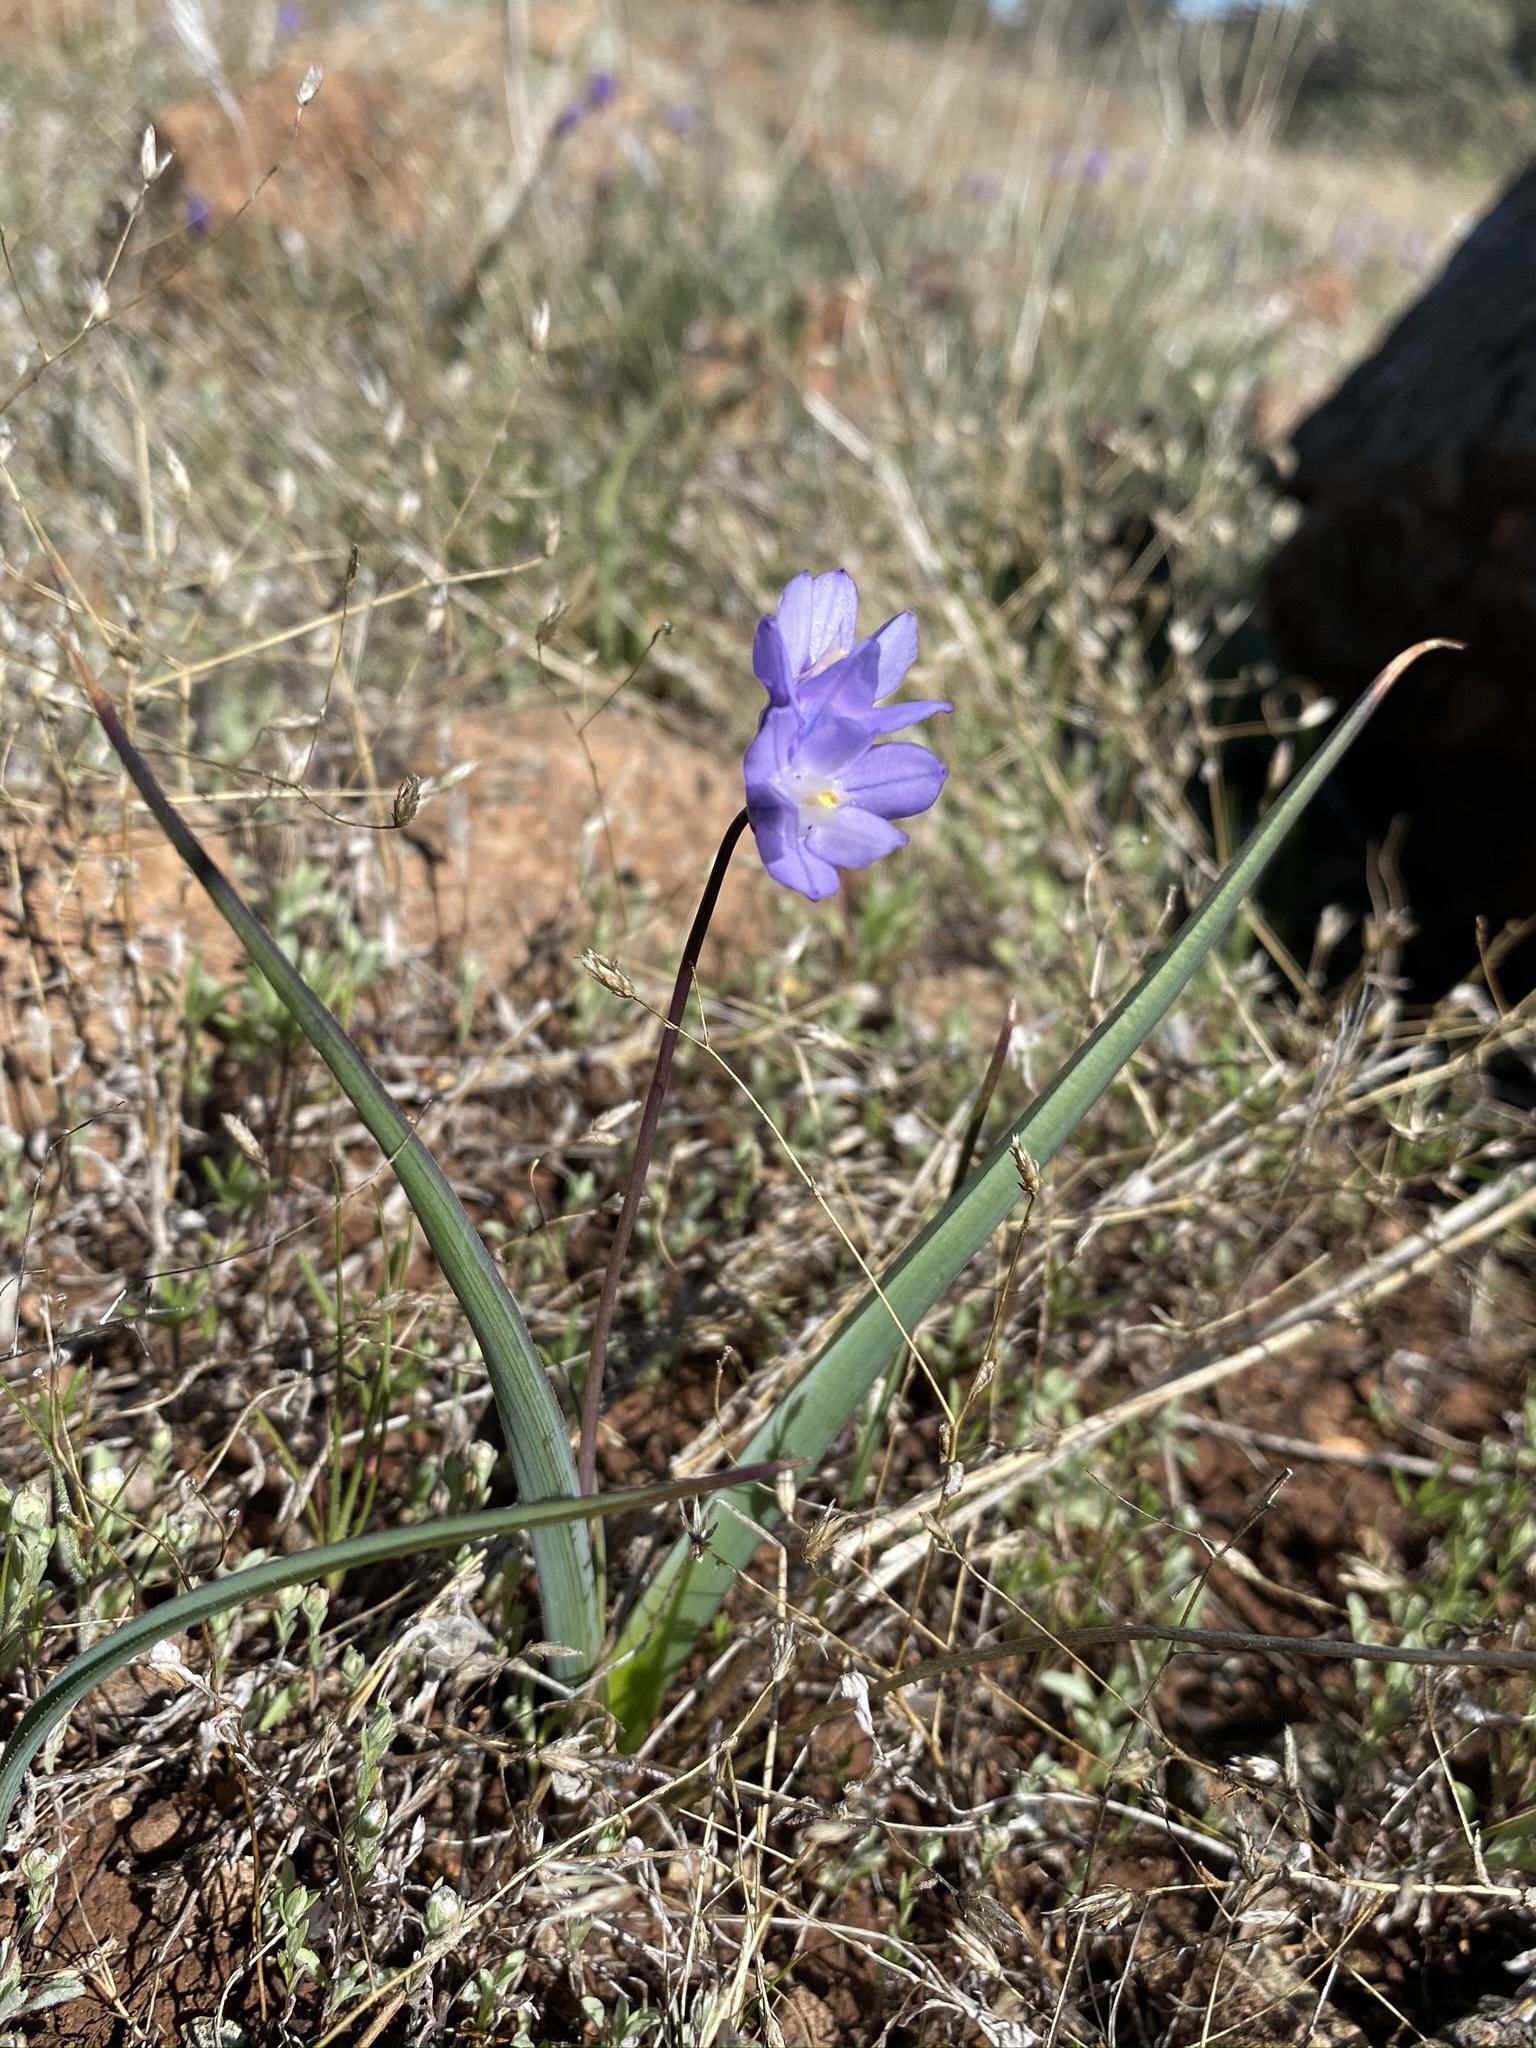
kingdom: Plantae
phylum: Tracheophyta
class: Liliopsida
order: Asparagales
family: Asparagaceae
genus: Dipterostemon
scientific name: Dipterostemon capitatus
